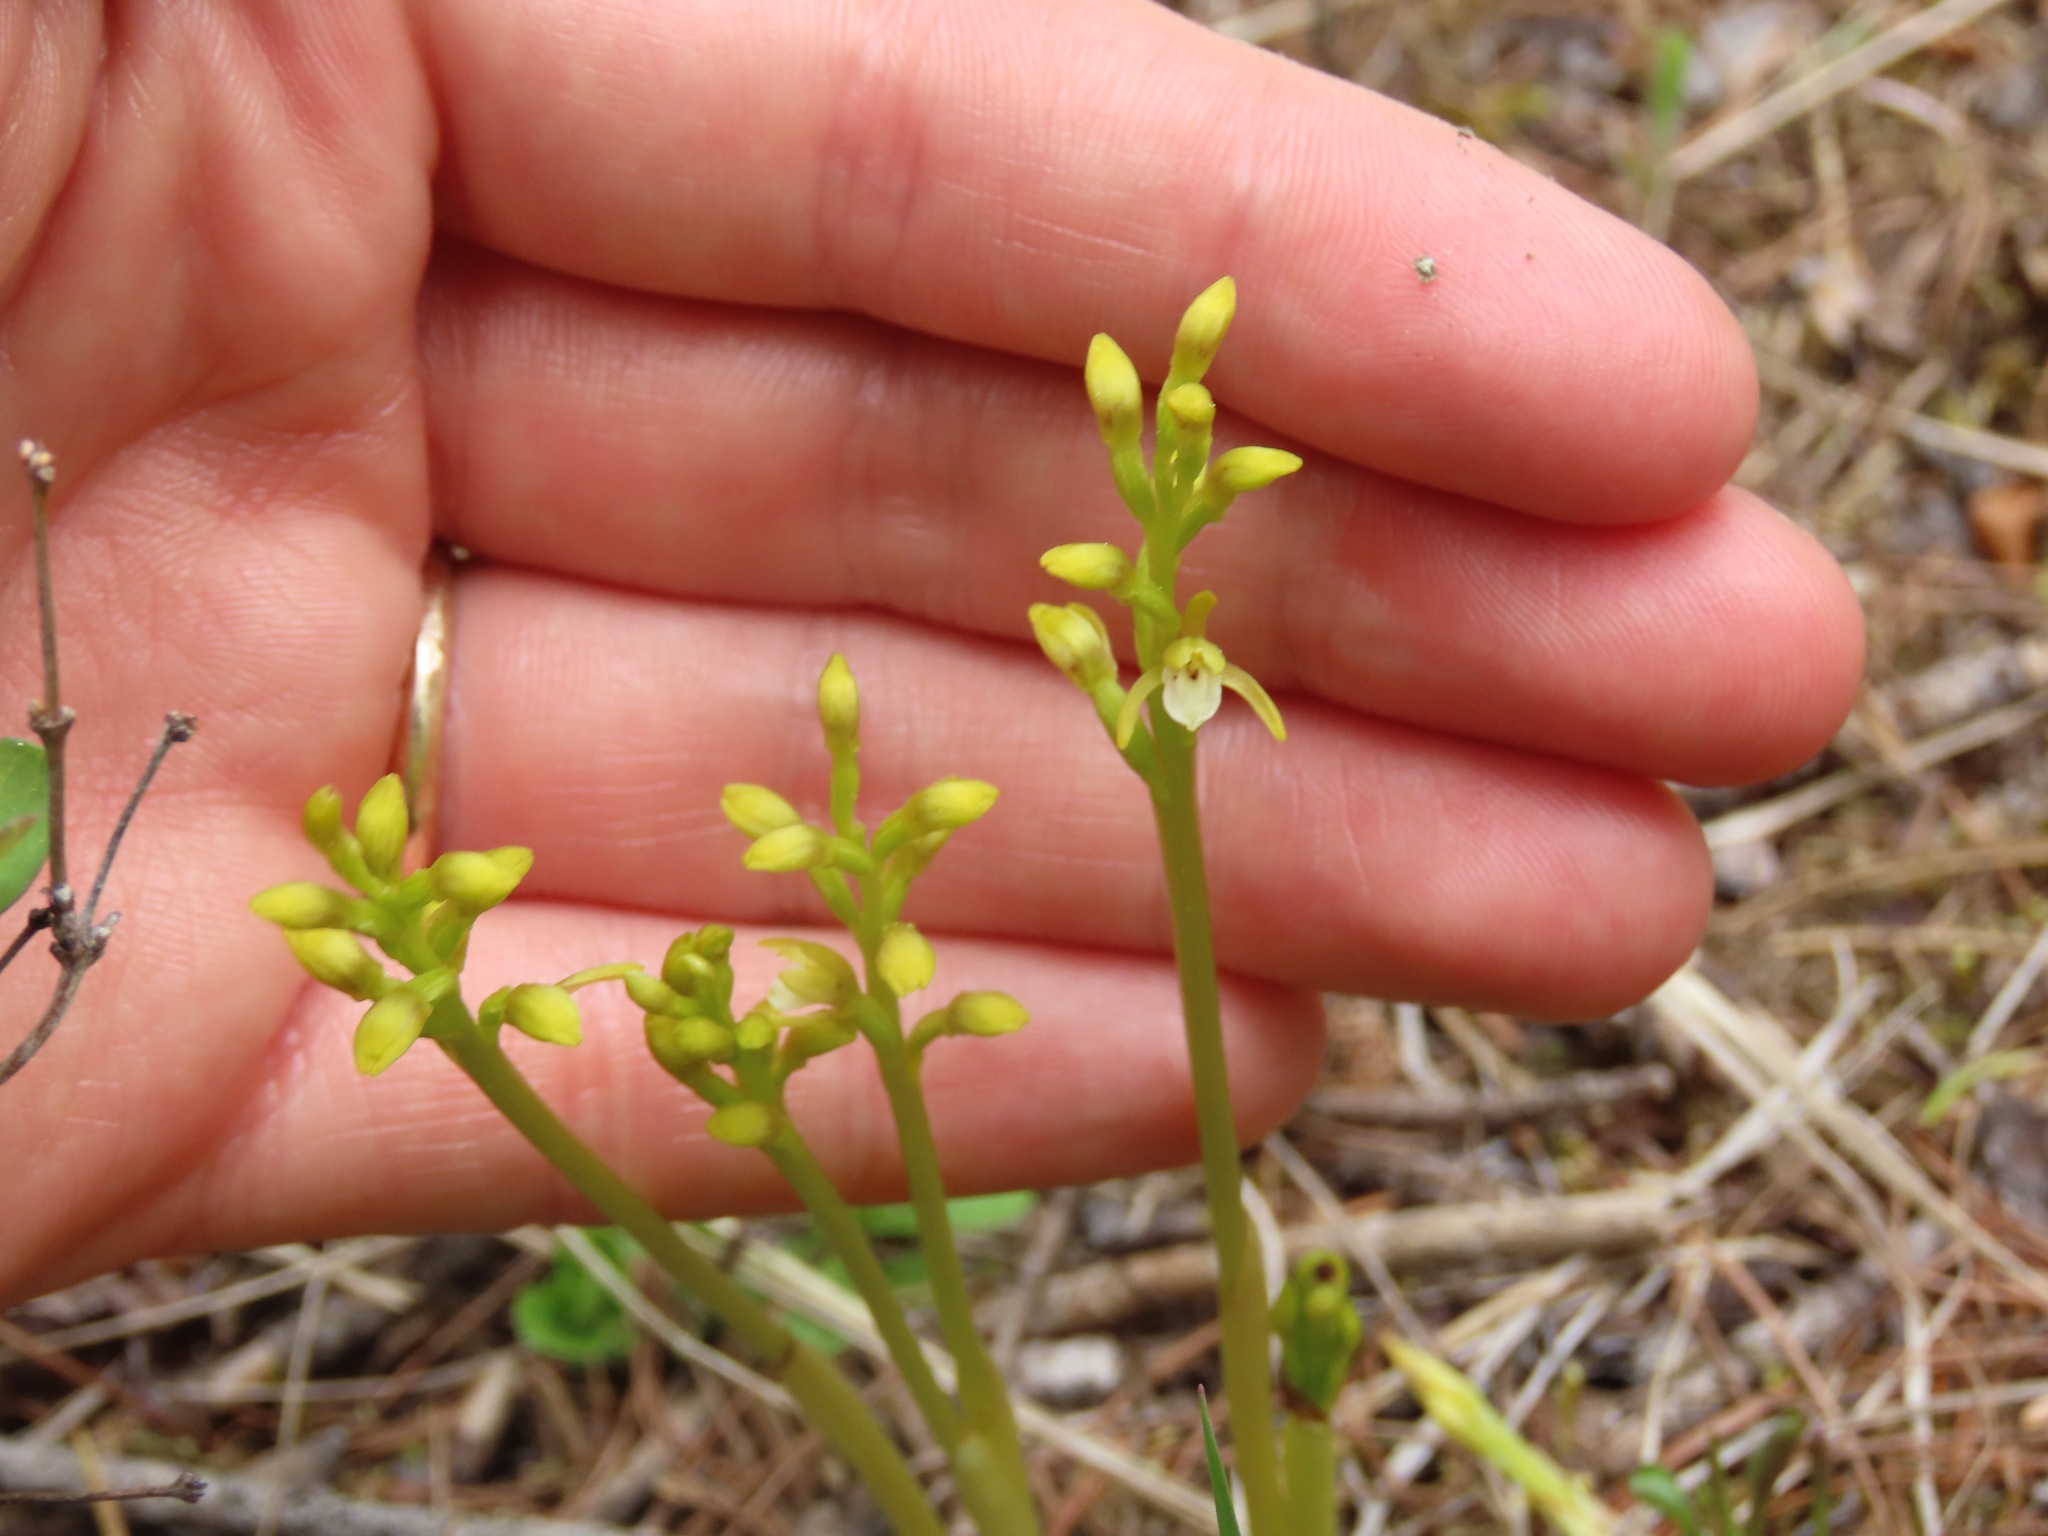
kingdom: Plantae
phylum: Tracheophyta
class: Liliopsida
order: Asparagales
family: Orchidaceae
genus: Corallorhiza
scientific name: Corallorhiza trifida
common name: Yellow coralroot
